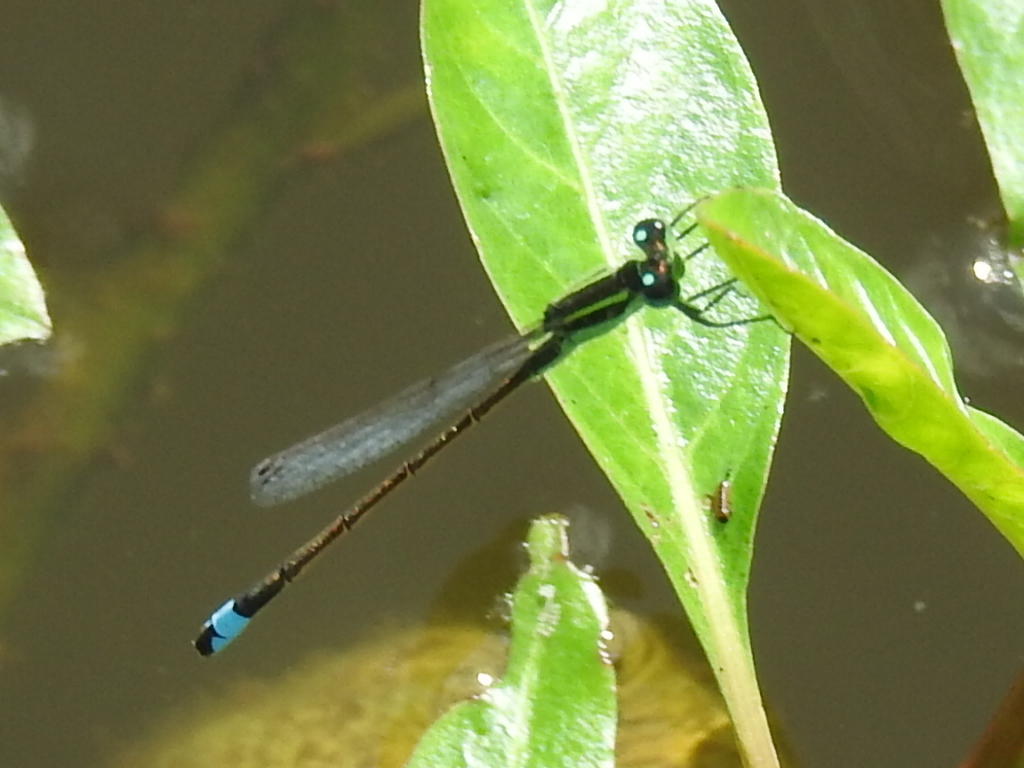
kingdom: Animalia
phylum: Arthropoda
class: Insecta
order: Odonata
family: Coenagrionidae
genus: Ischnura
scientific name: Ischnura ramburii
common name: Rambur's forktail
